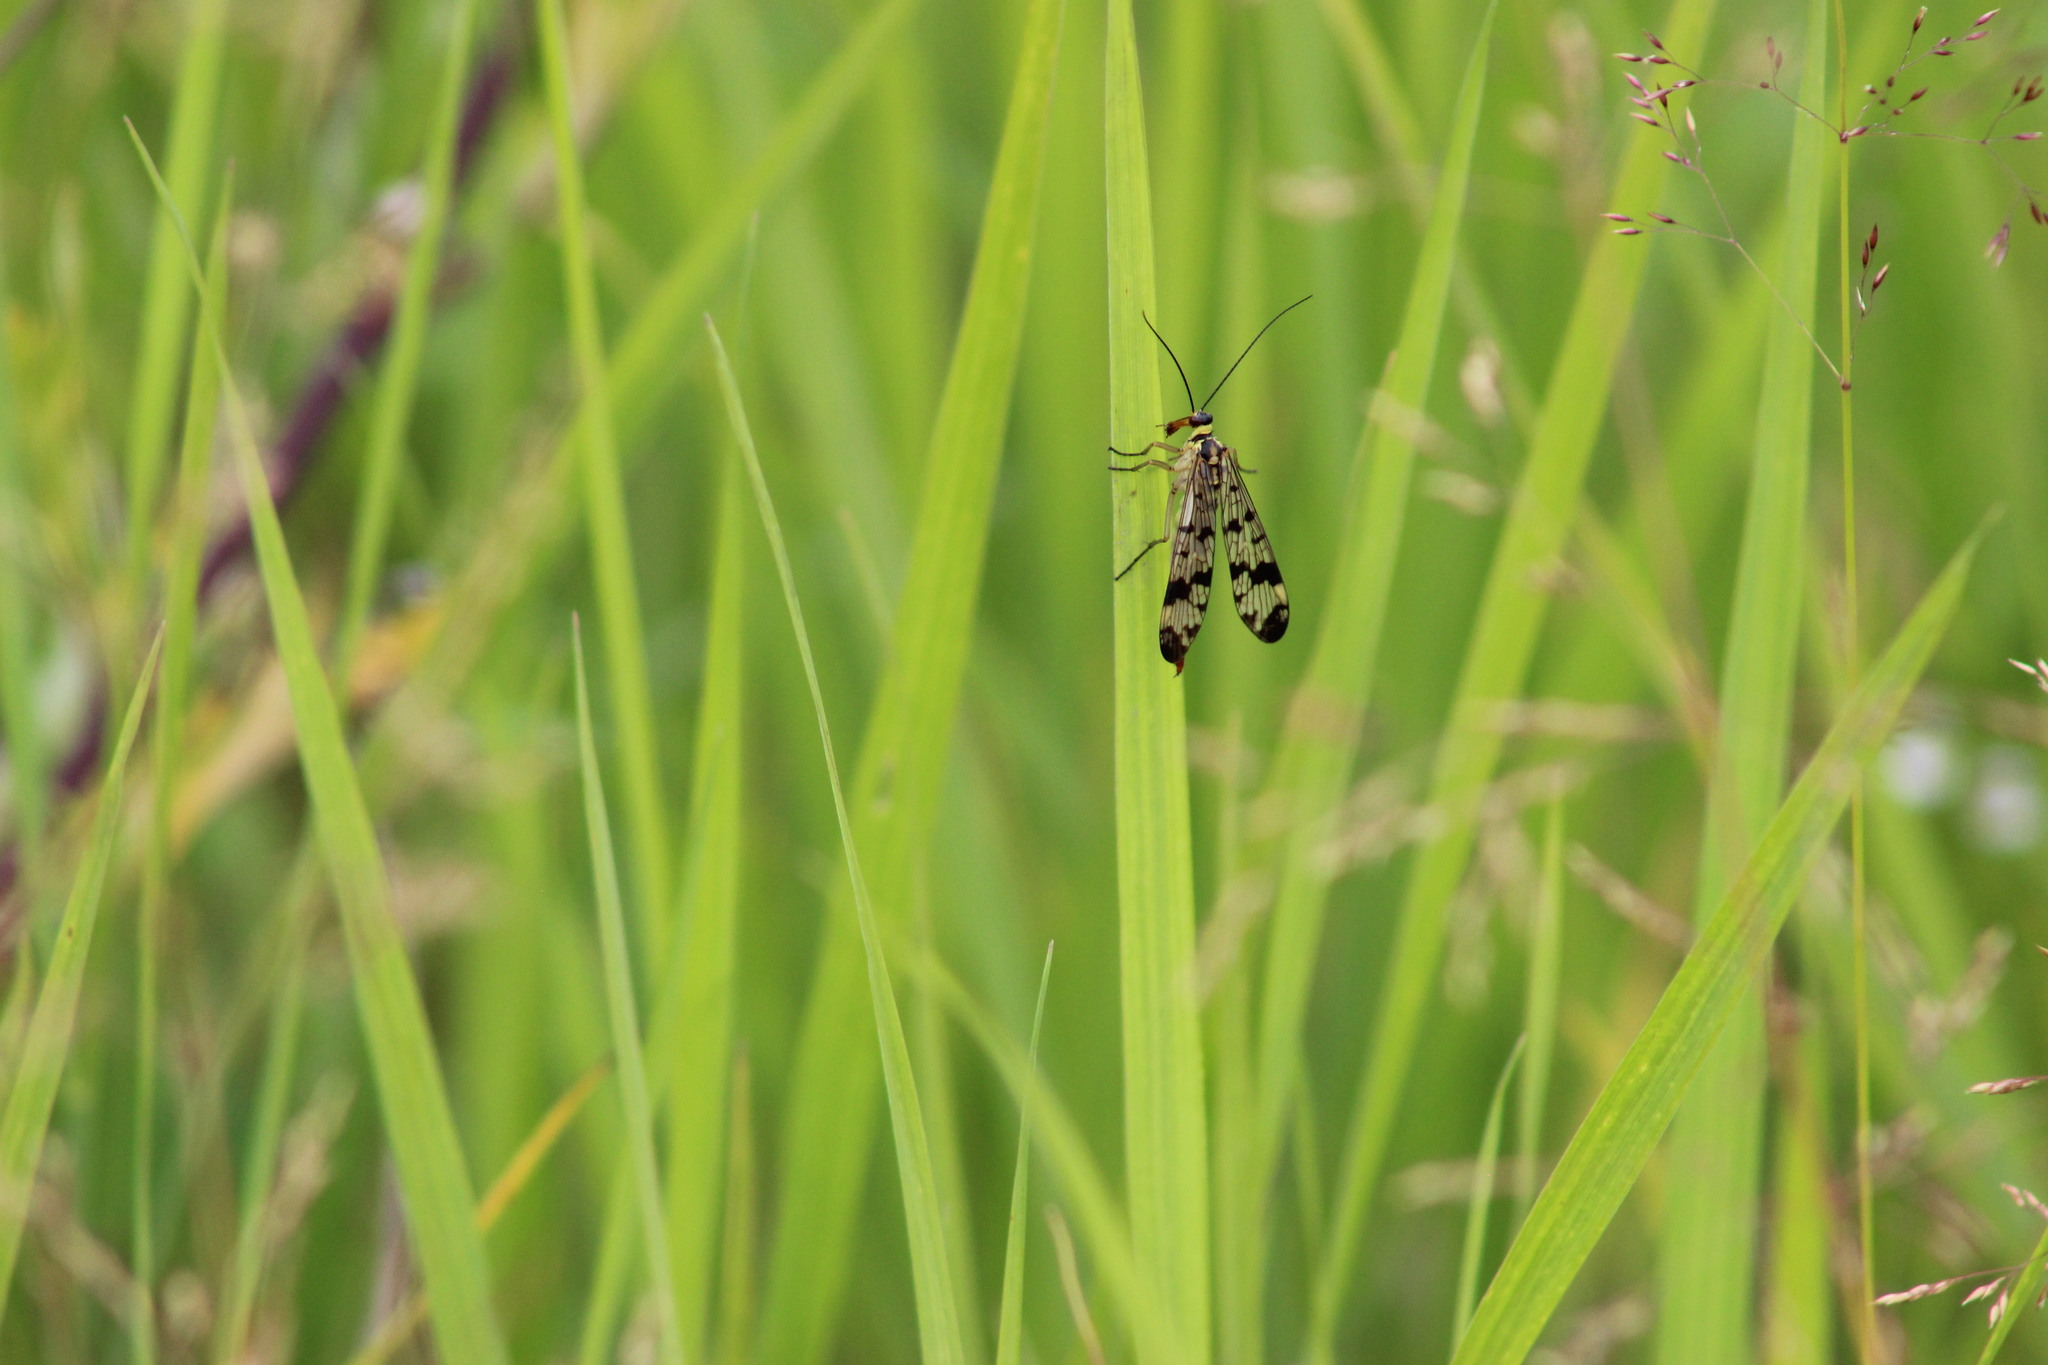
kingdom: Animalia
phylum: Arthropoda
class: Insecta
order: Mecoptera
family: Panorpidae
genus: Panorpa
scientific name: Panorpa communis
